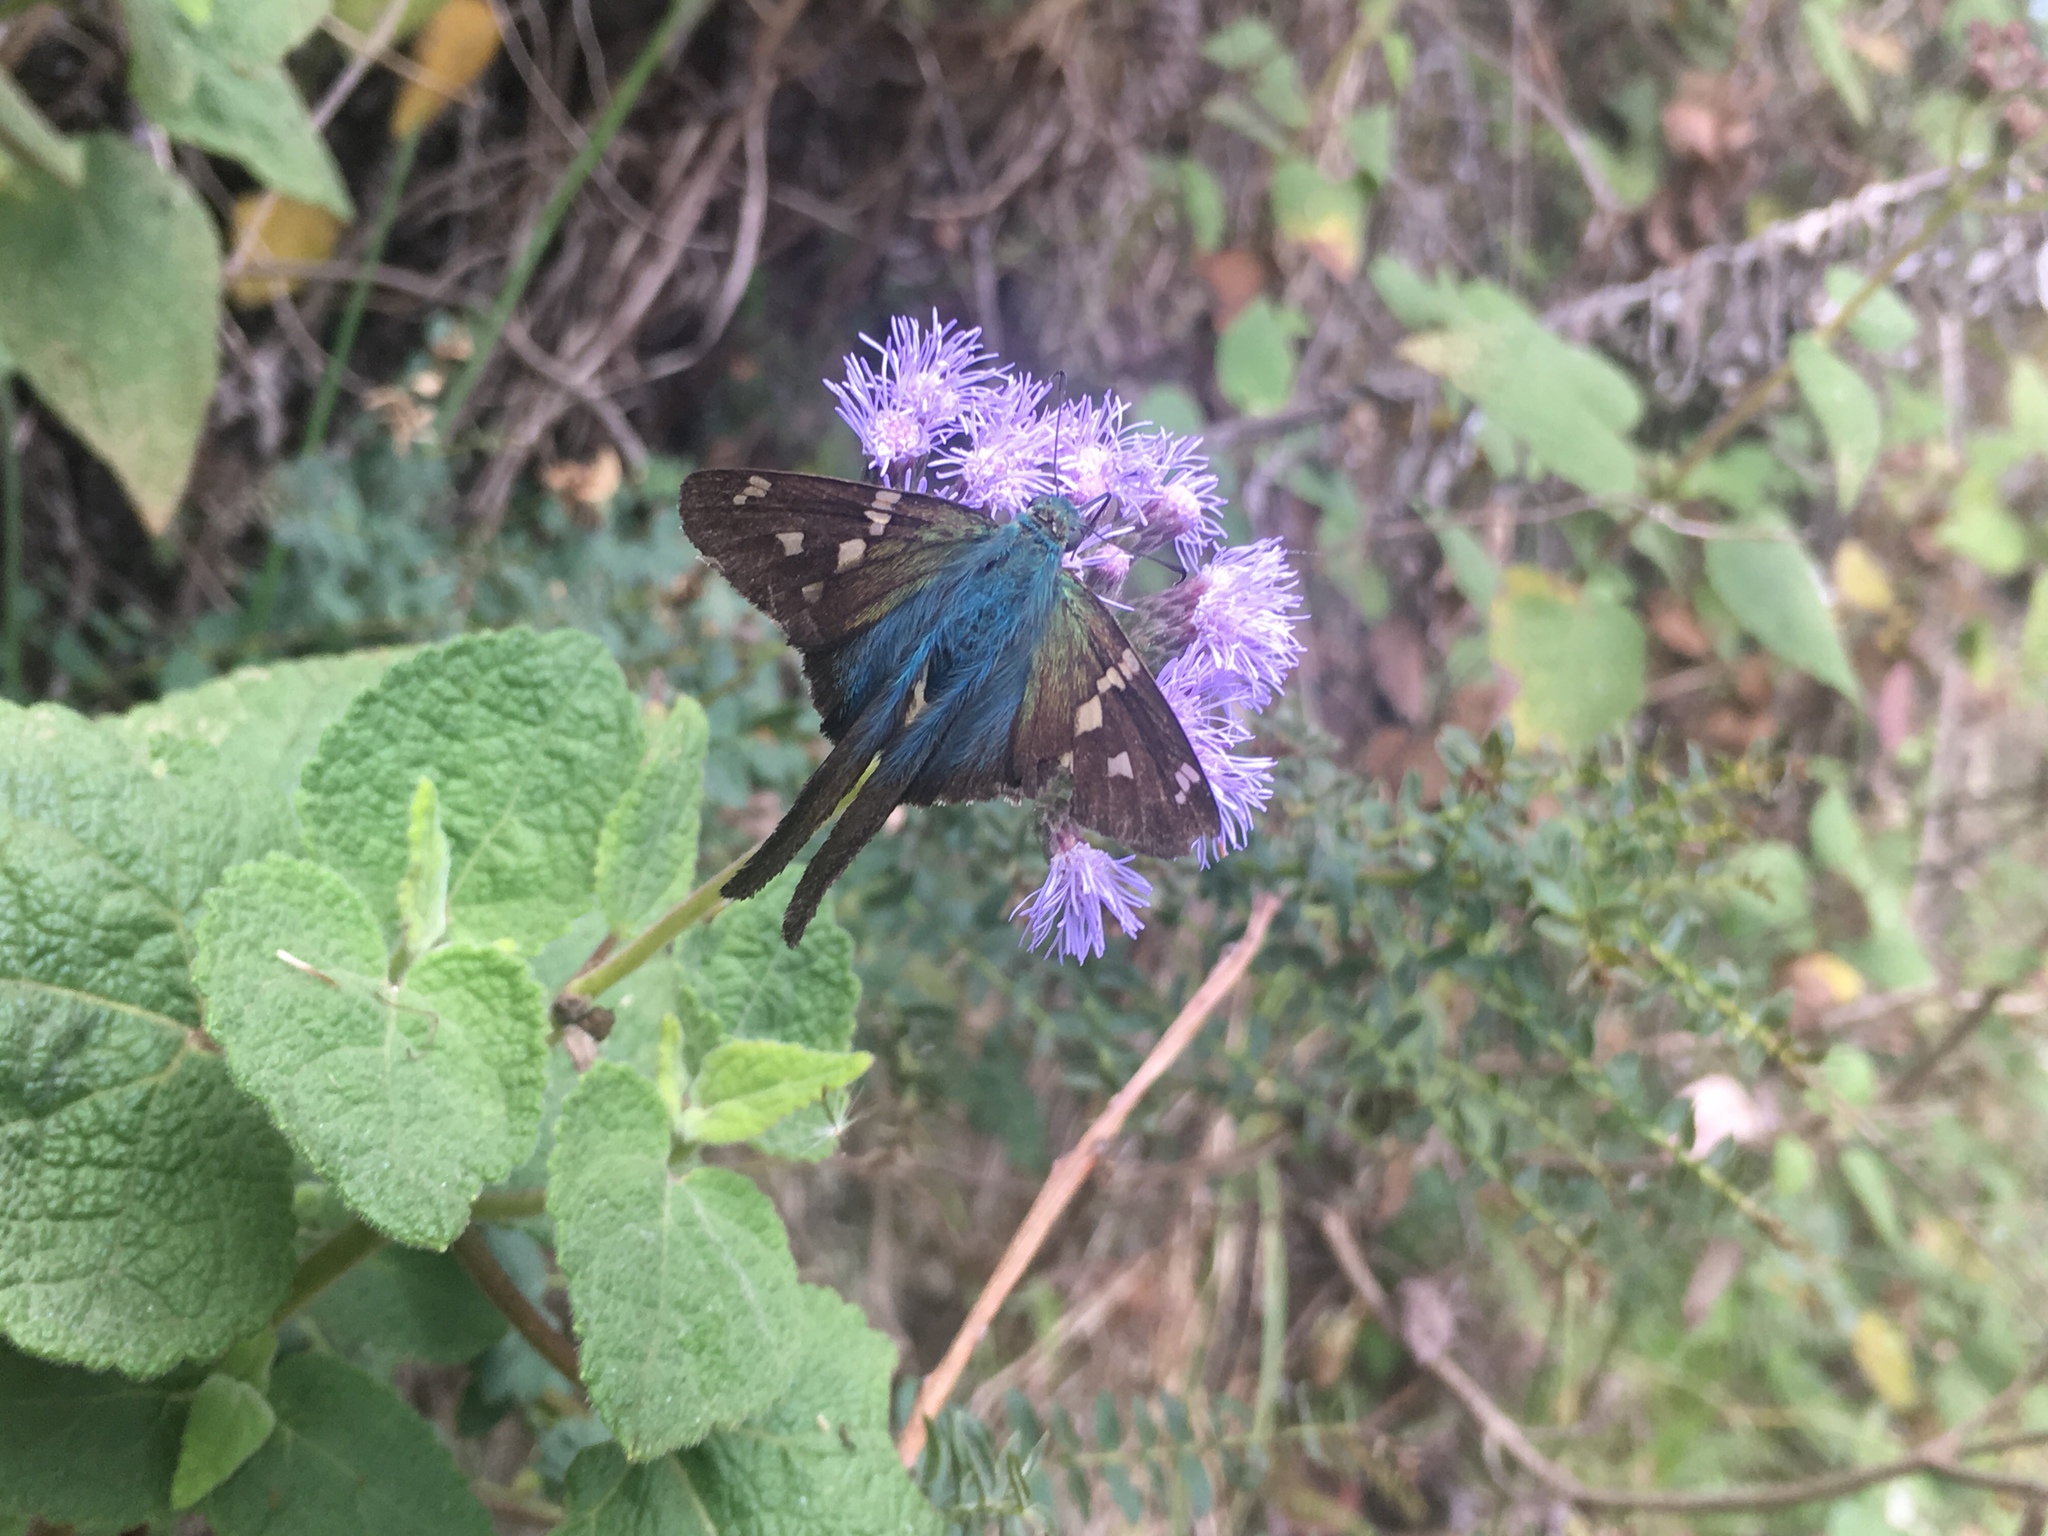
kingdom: Animalia
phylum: Arthropoda
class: Insecta
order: Lepidoptera
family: Hesperiidae
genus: Urbanus
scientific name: Urbanus proteus
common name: Long-tailed skipper
